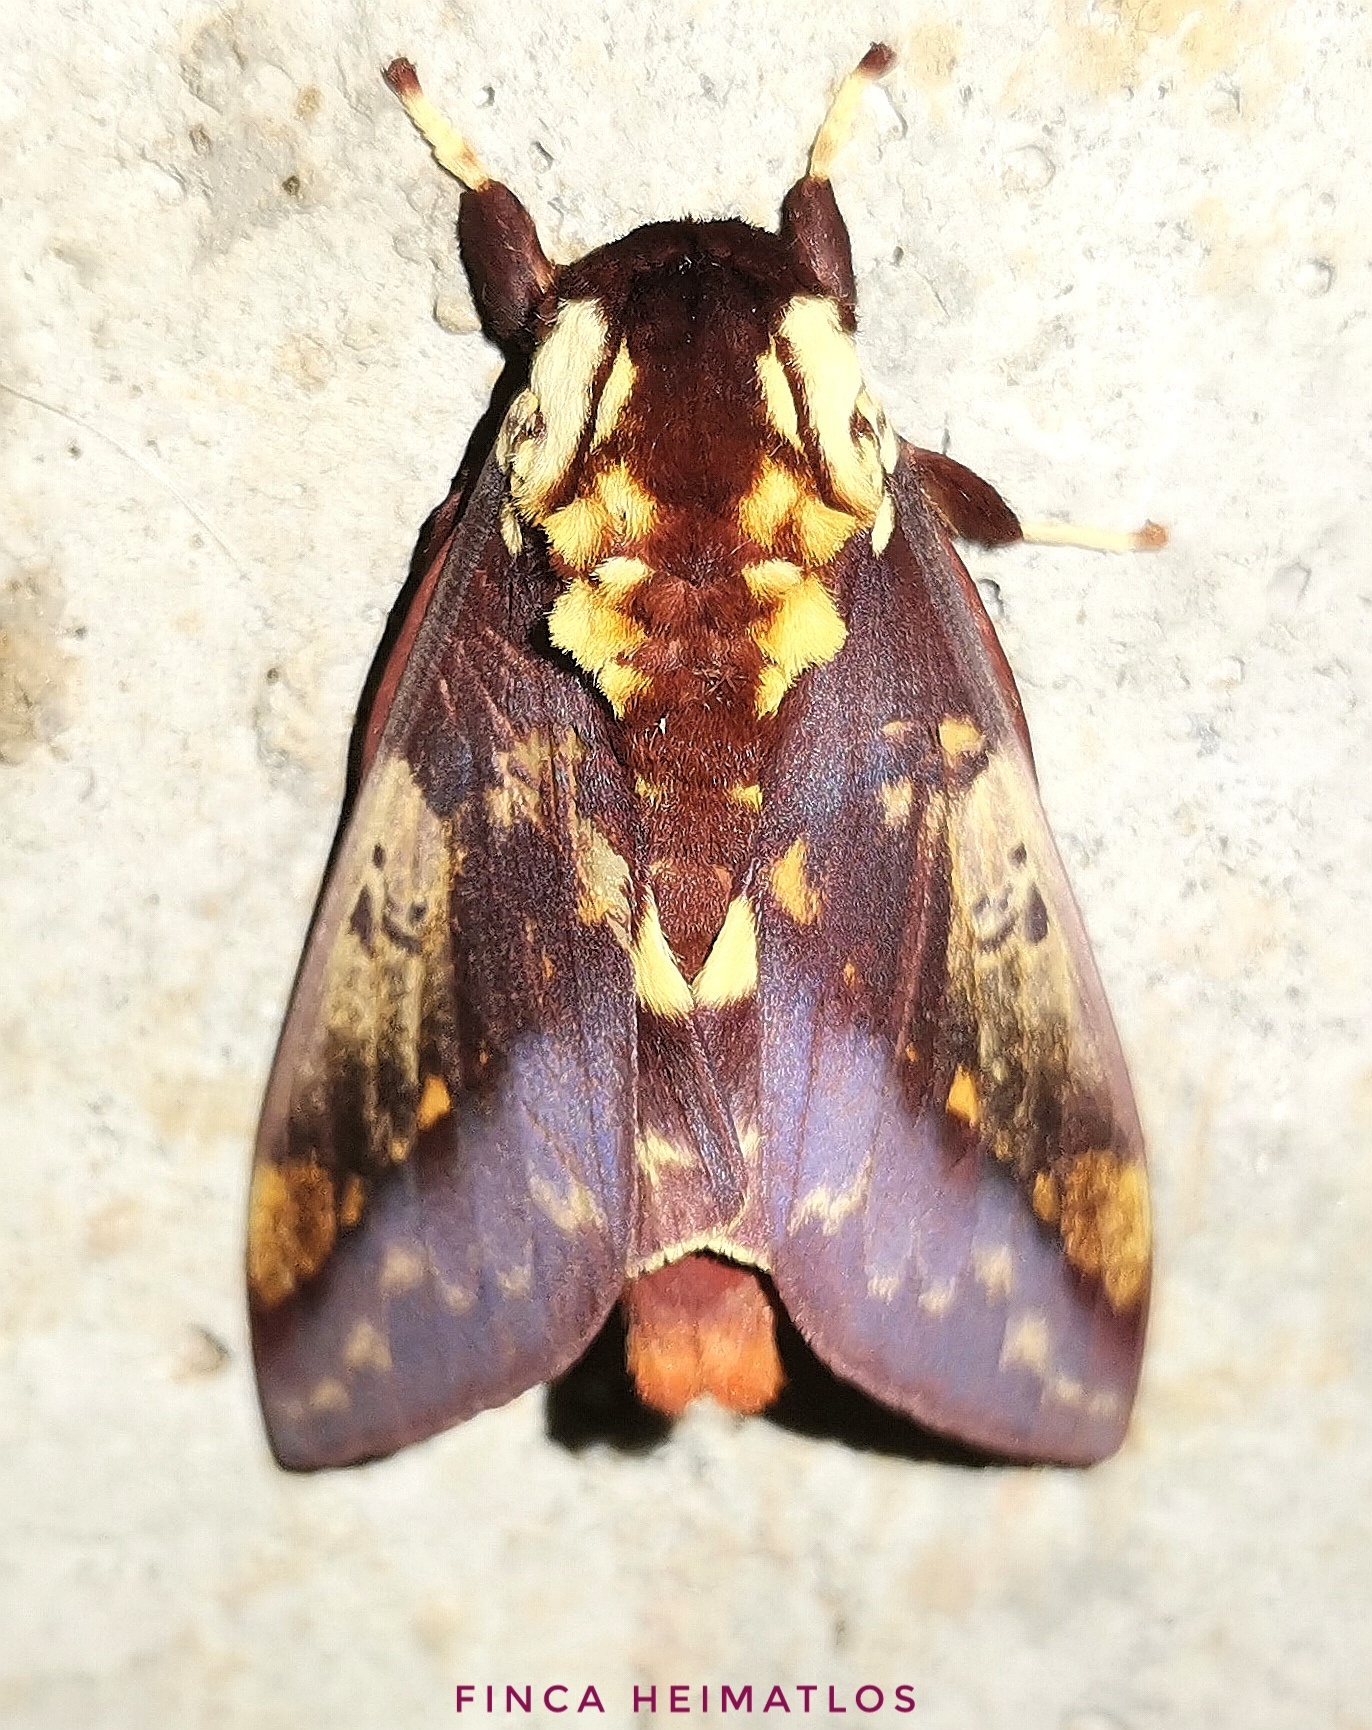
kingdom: Animalia
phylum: Arthropoda
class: Insecta
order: Lepidoptera
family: Saturniidae
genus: Citheronia
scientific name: Citheronia phoronea
